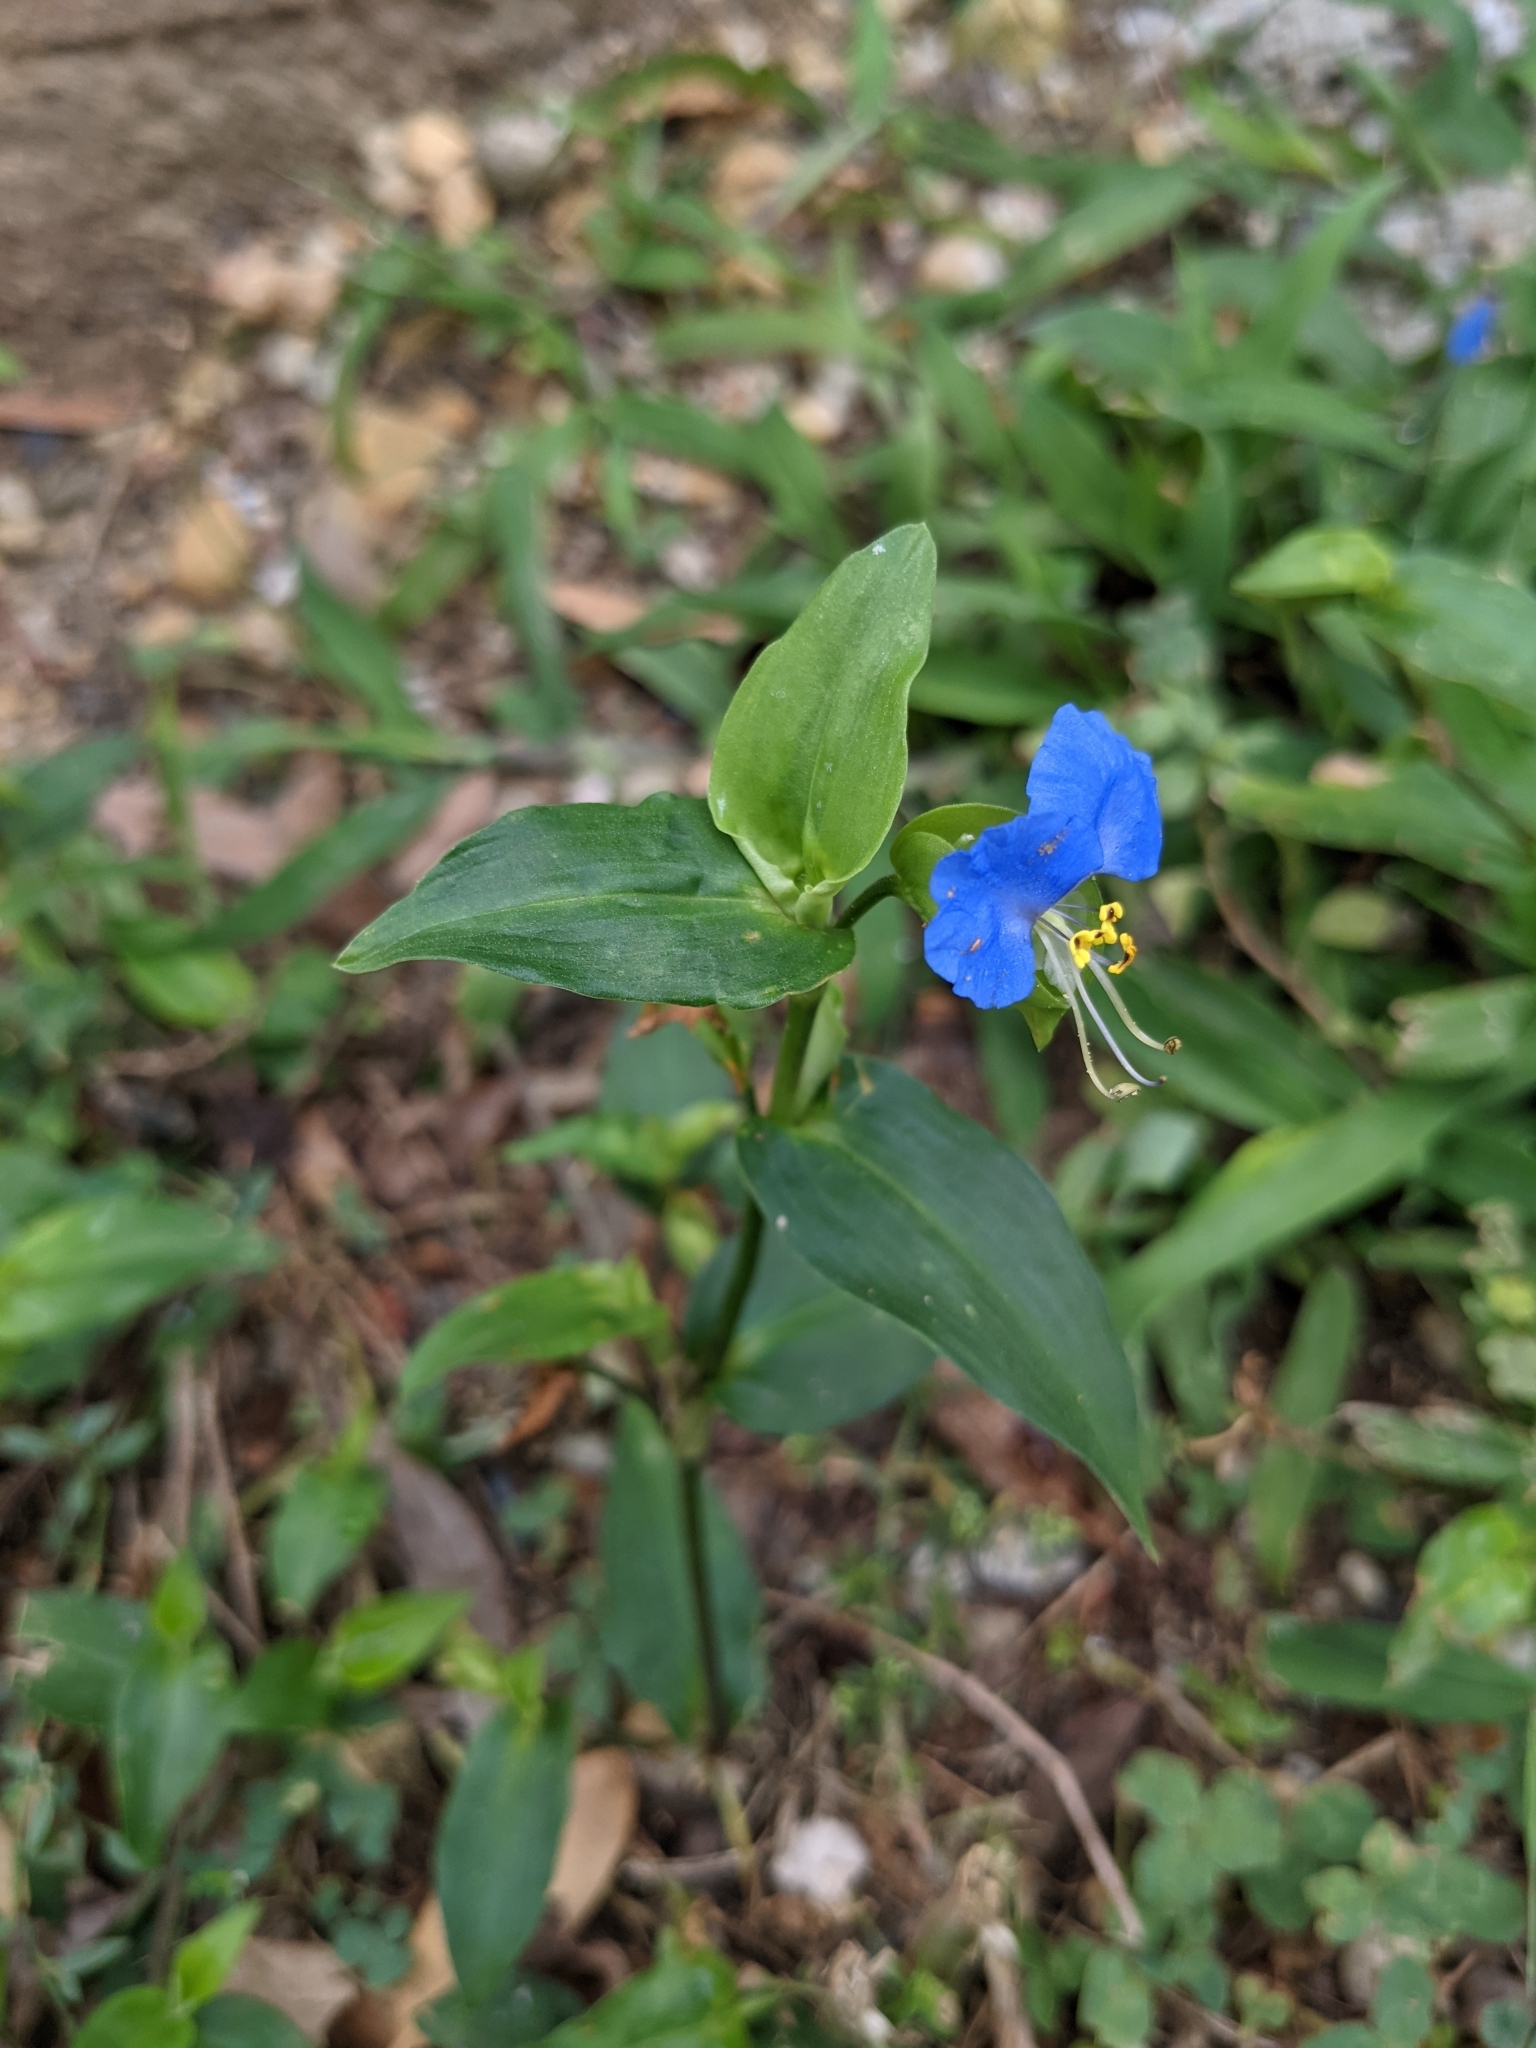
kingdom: Plantae
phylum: Tracheophyta
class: Liliopsida
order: Commelinales
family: Commelinaceae
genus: Commelina
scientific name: Commelina communis
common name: Asiatic dayflower
